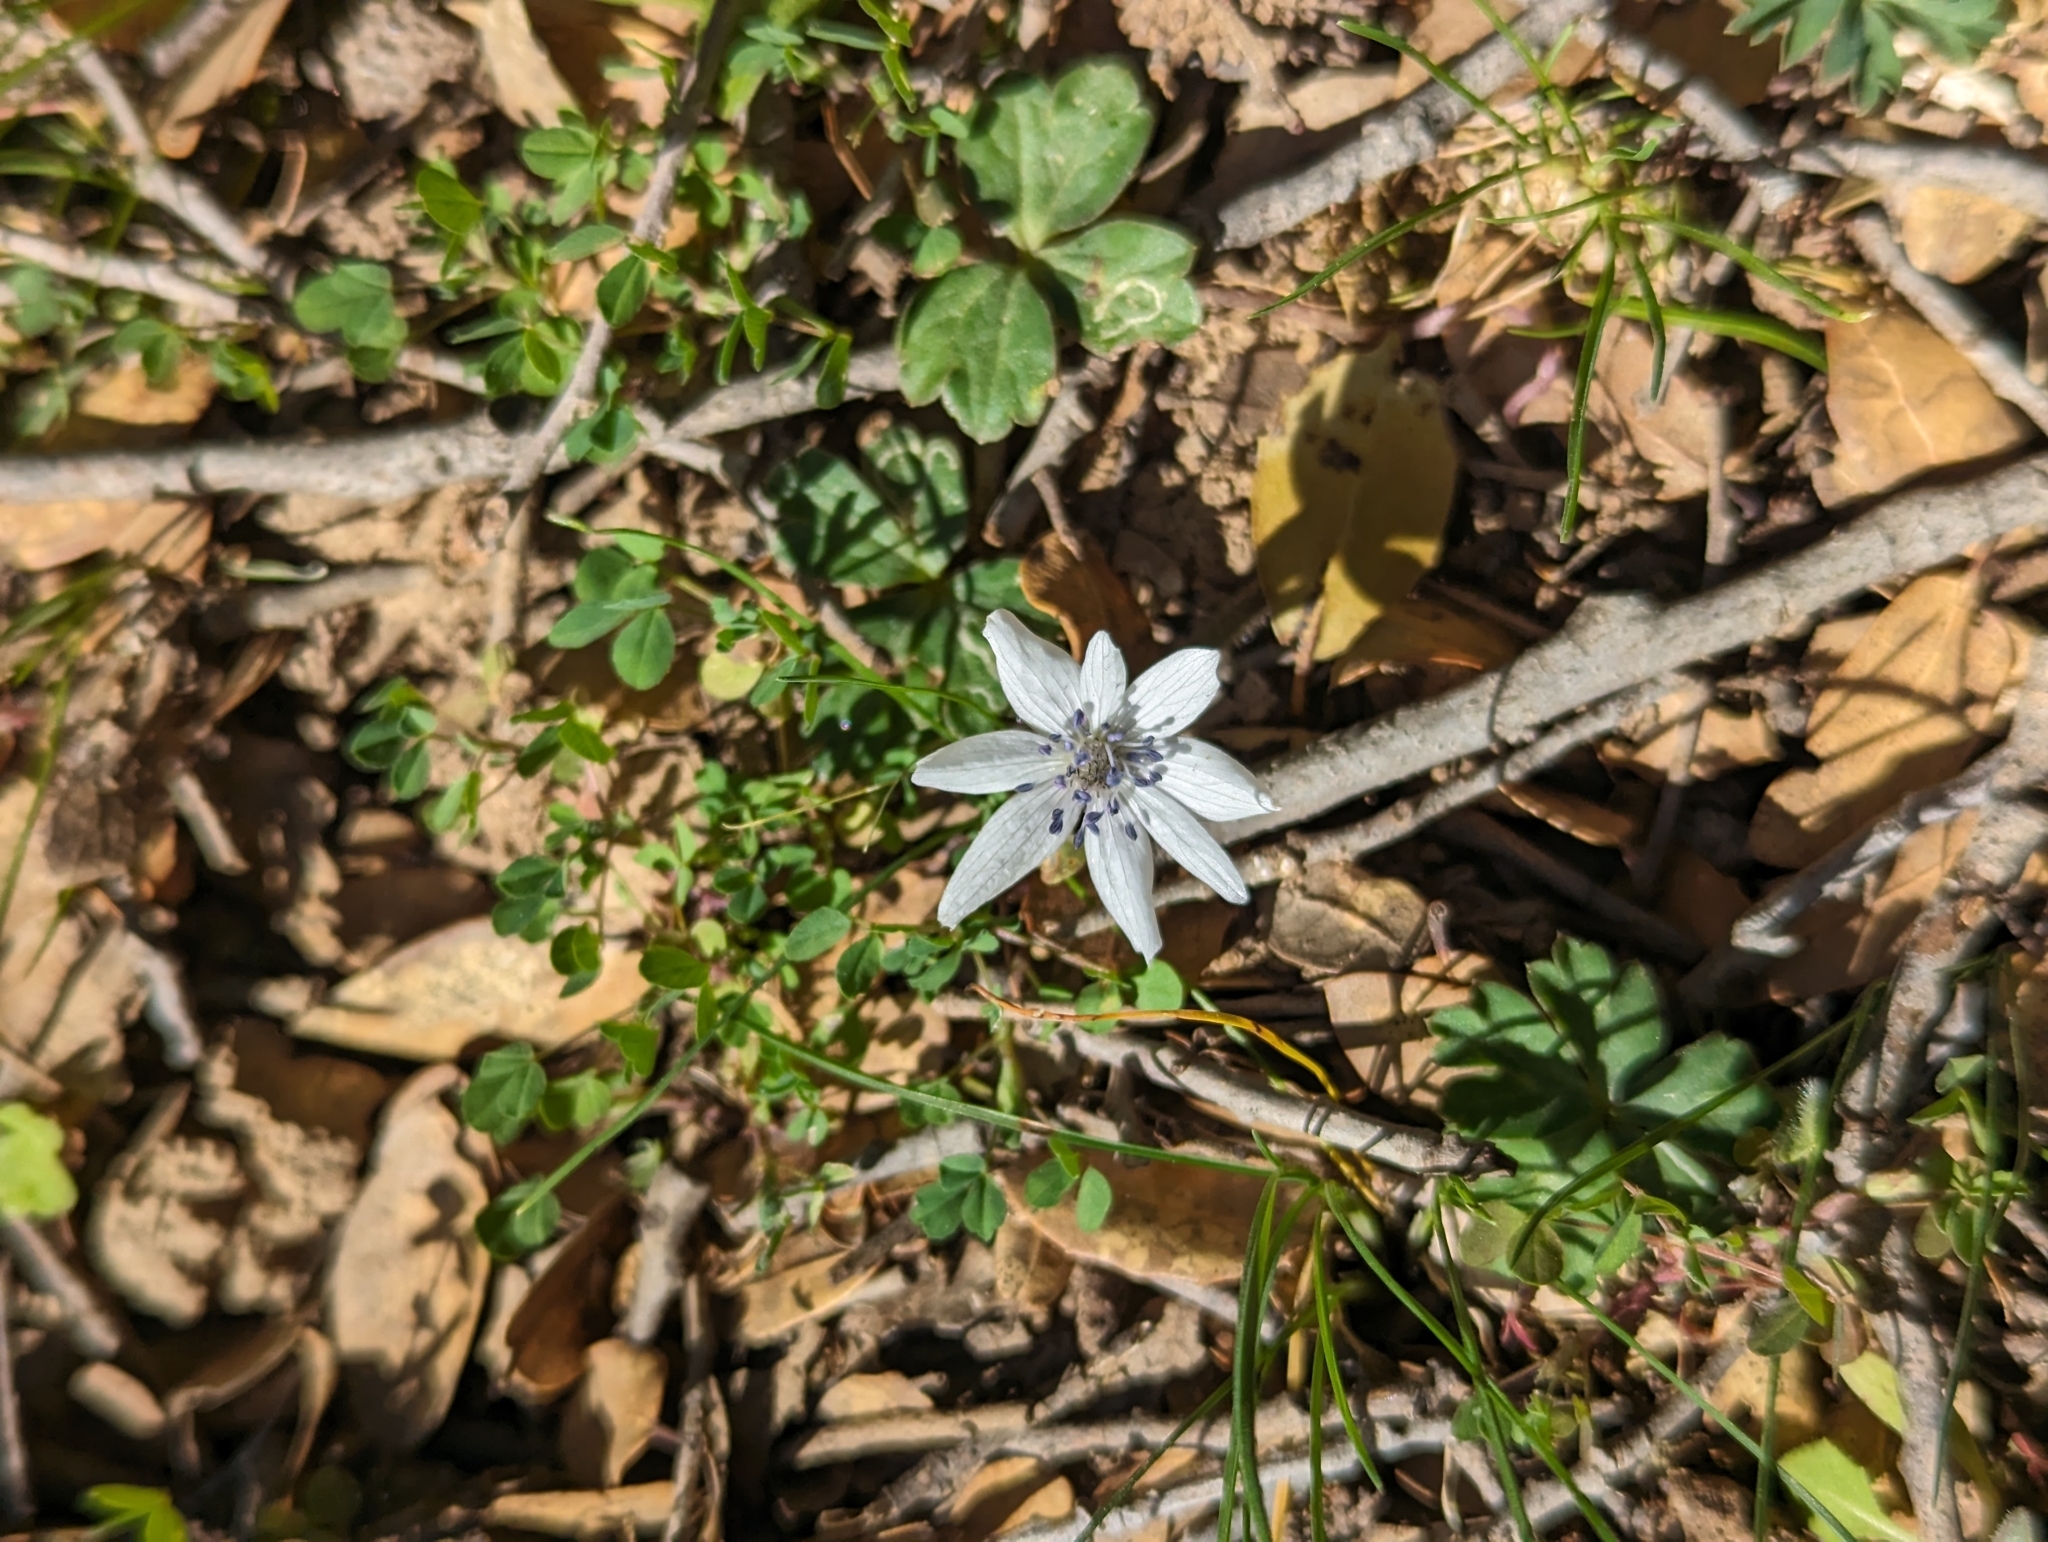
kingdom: Plantae
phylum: Tracheophyta
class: Magnoliopsida
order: Ranunculales
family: Ranunculaceae
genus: Anemone
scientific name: Anemone hortensis
